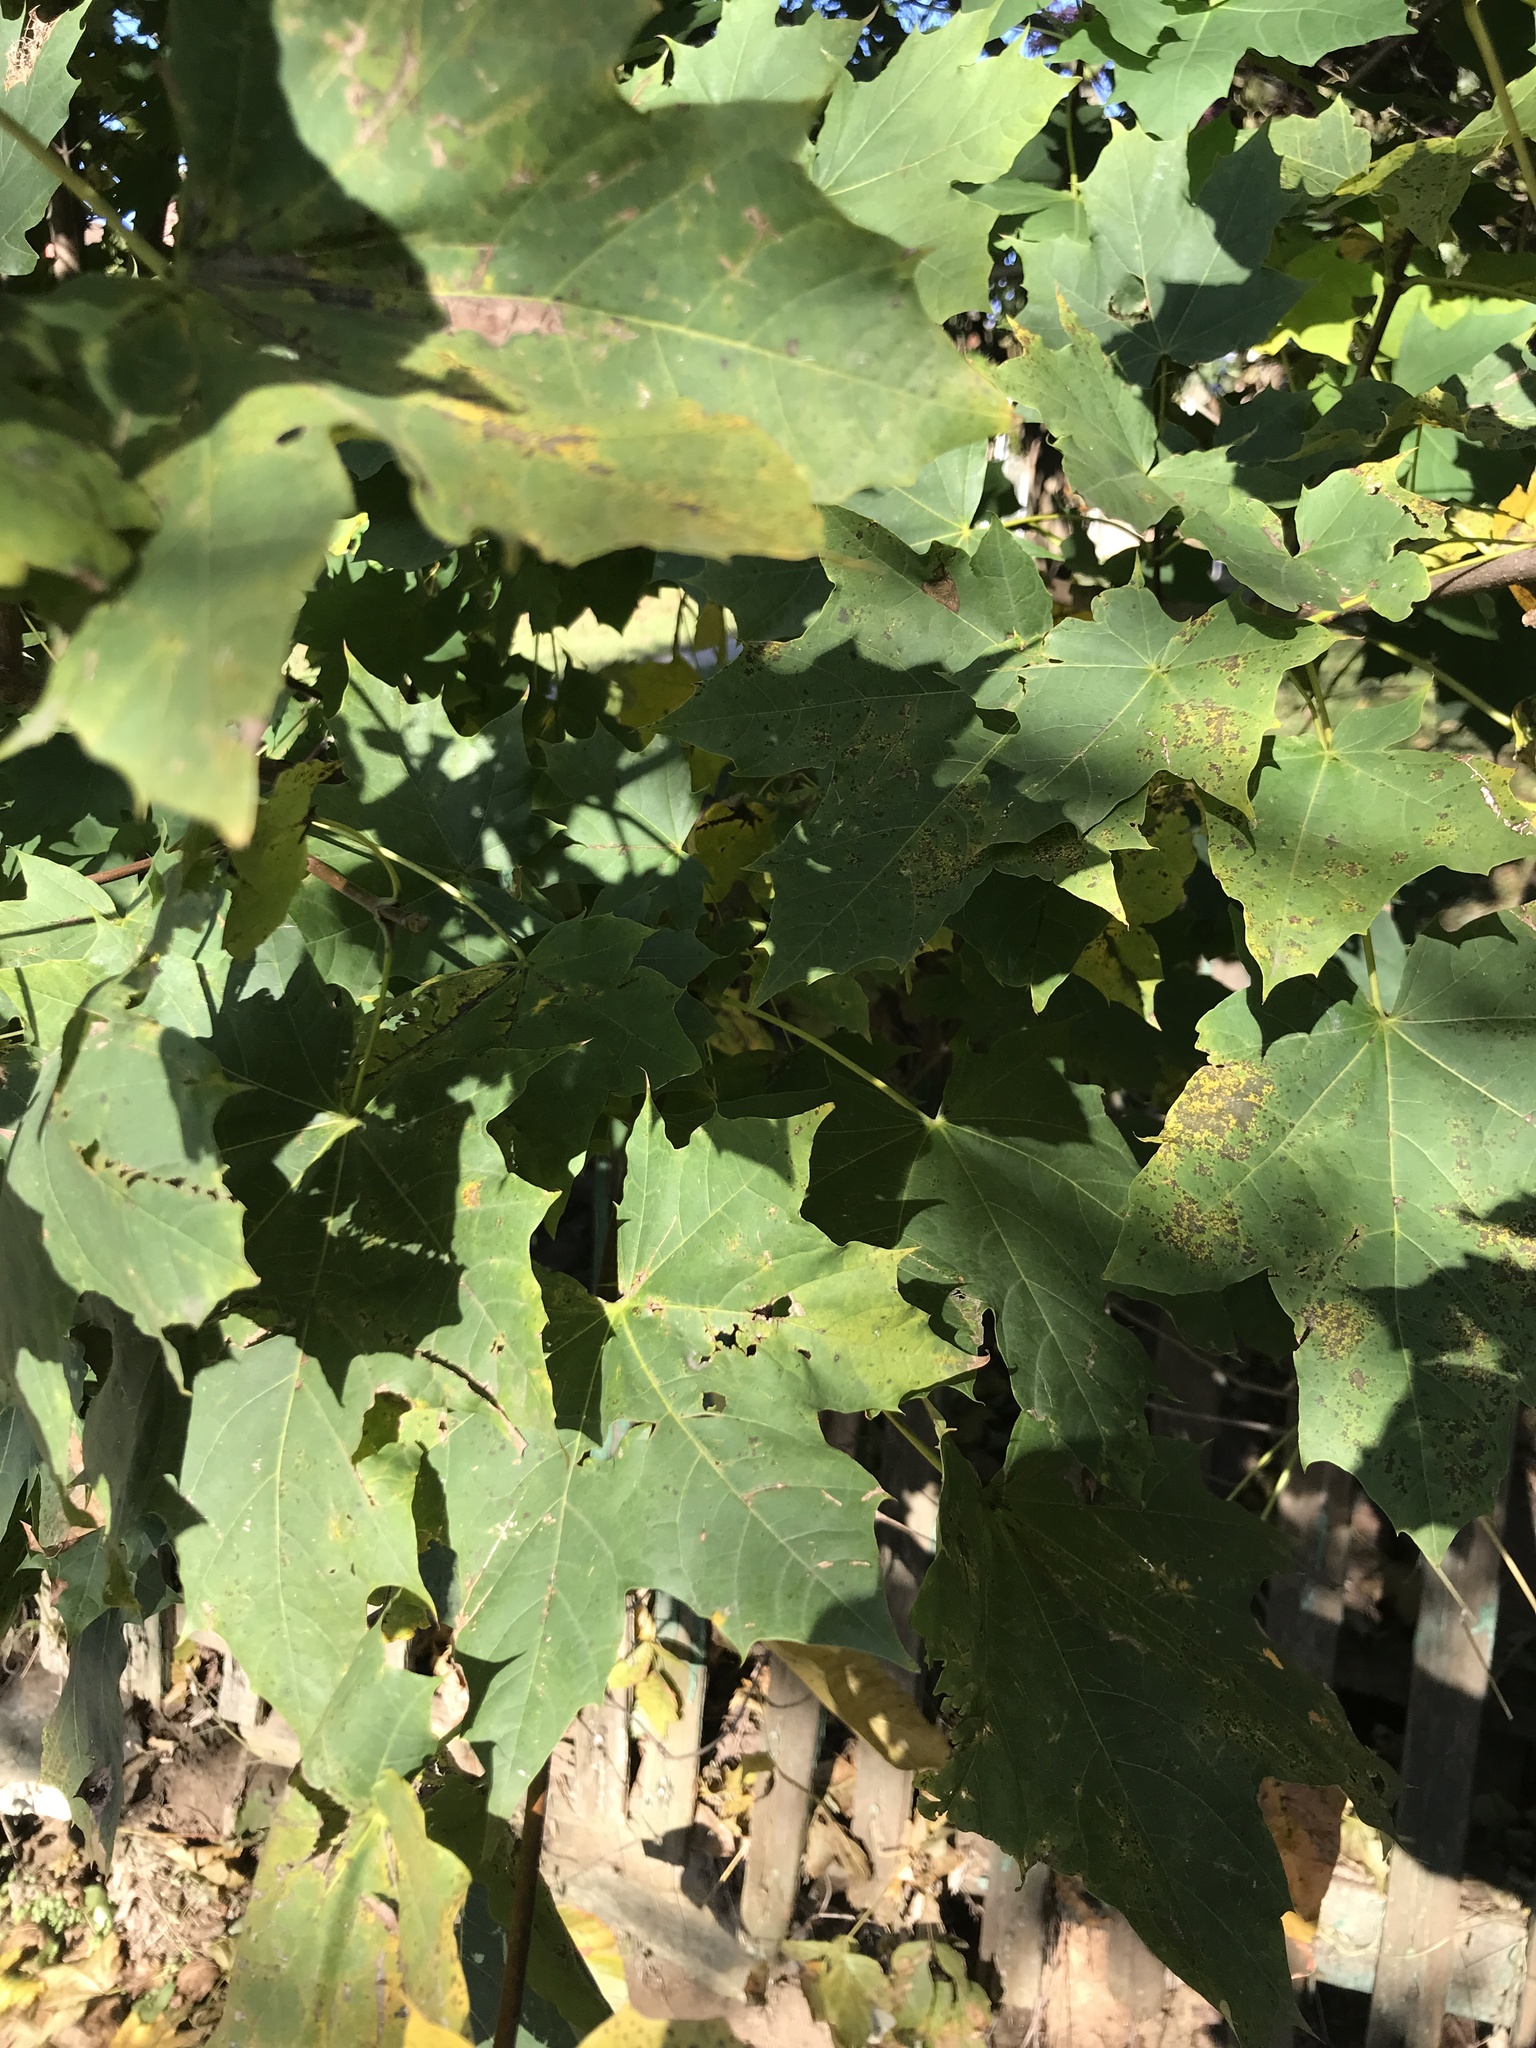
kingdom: Plantae
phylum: Tracheophyta
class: Magnoliopsida
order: Sapindales
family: Sapindaceae
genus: Acer
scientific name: Acer platanoides
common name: Norway maple
